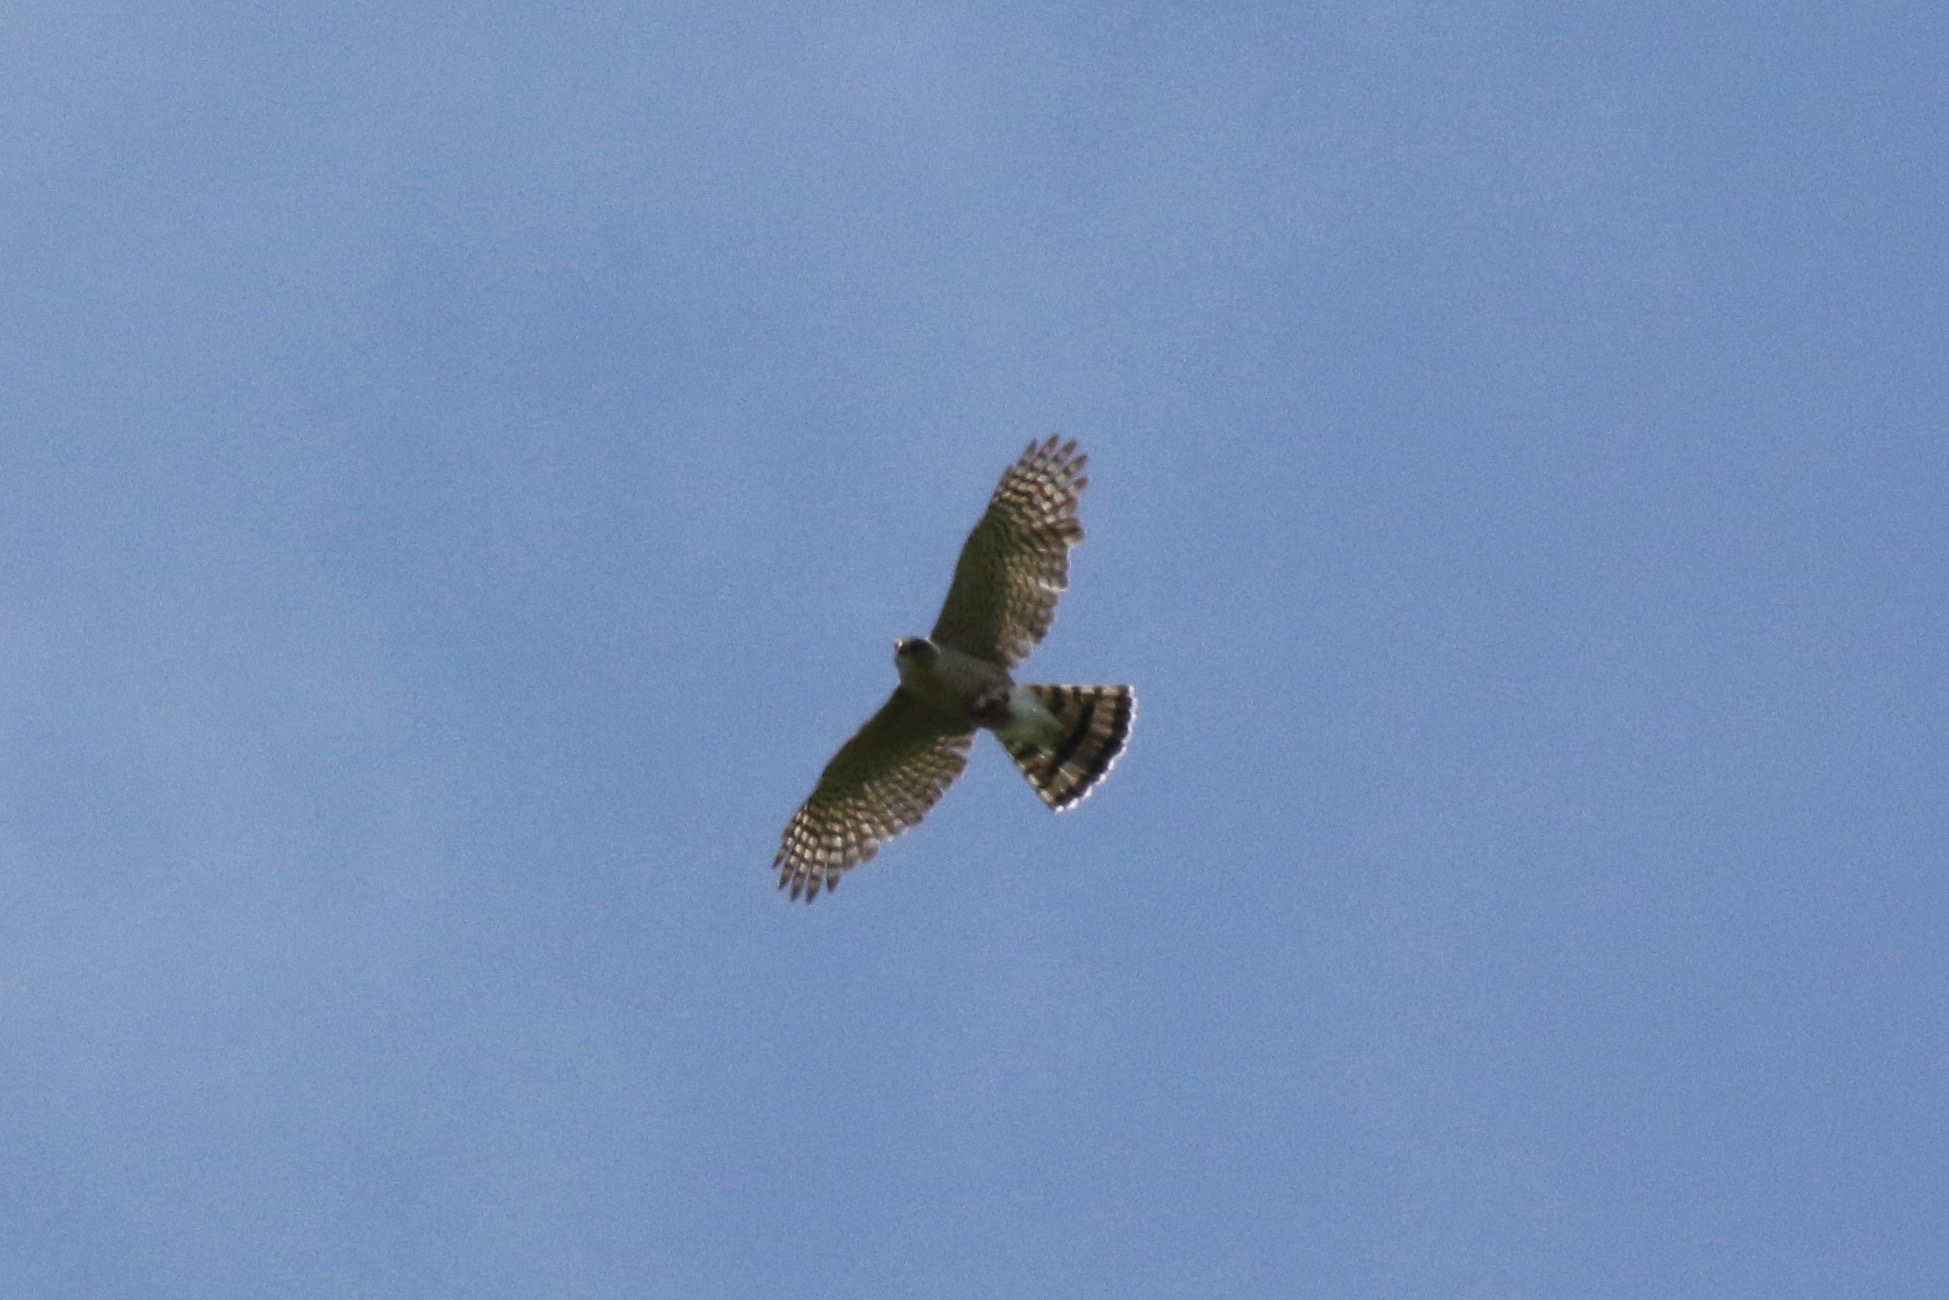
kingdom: Animalia
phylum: Chordata
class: Aves
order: Accipitriformes
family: Accipitridae
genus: Accipiter
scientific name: Accipiter striatus
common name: Sharp-shinned hawk
